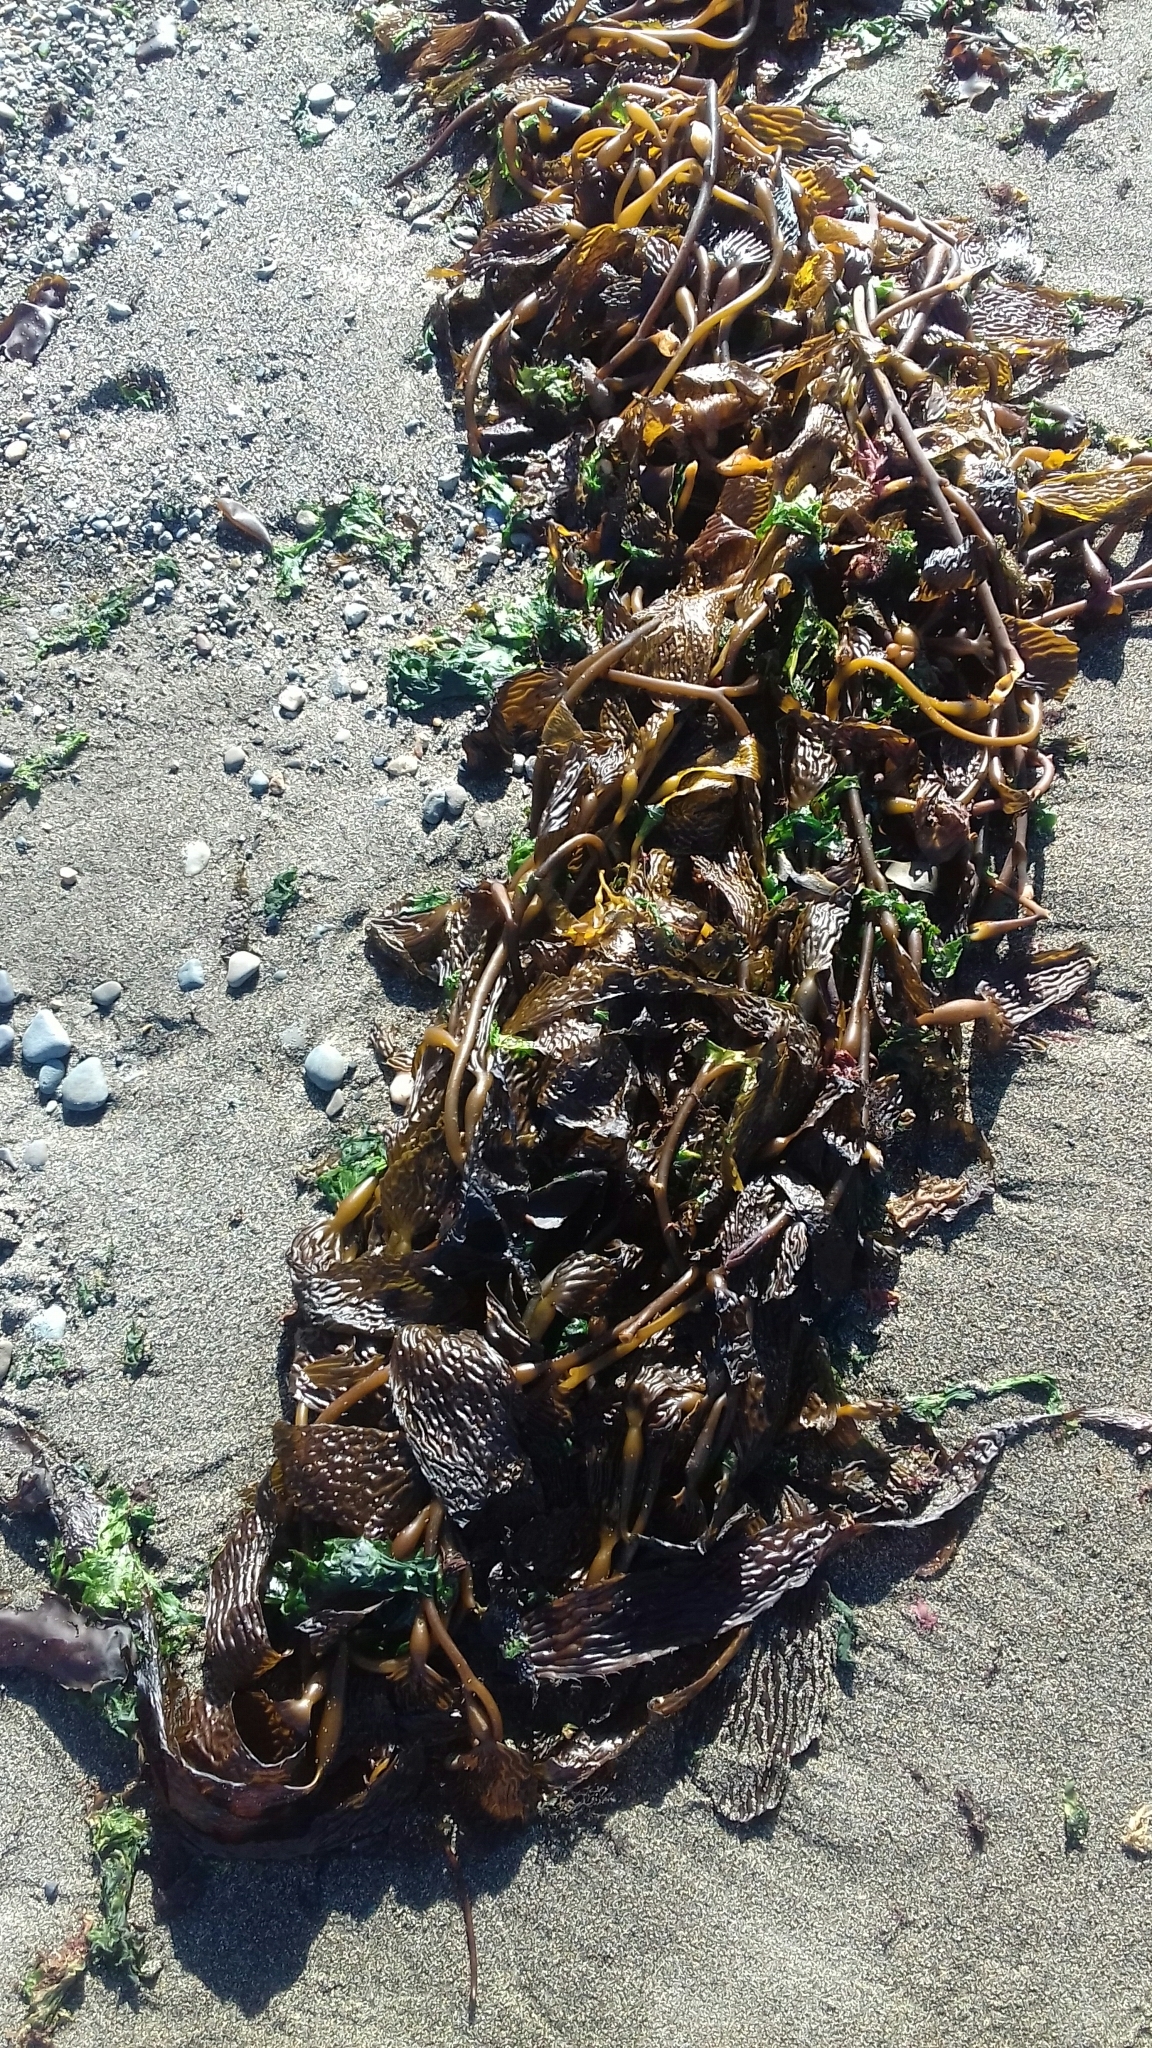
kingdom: Chromista
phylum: Ochrophyta
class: Phaeophyceae
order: Laminariales
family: Laminariaceae
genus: Macrocystis
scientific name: Macrocystis pyrifera
